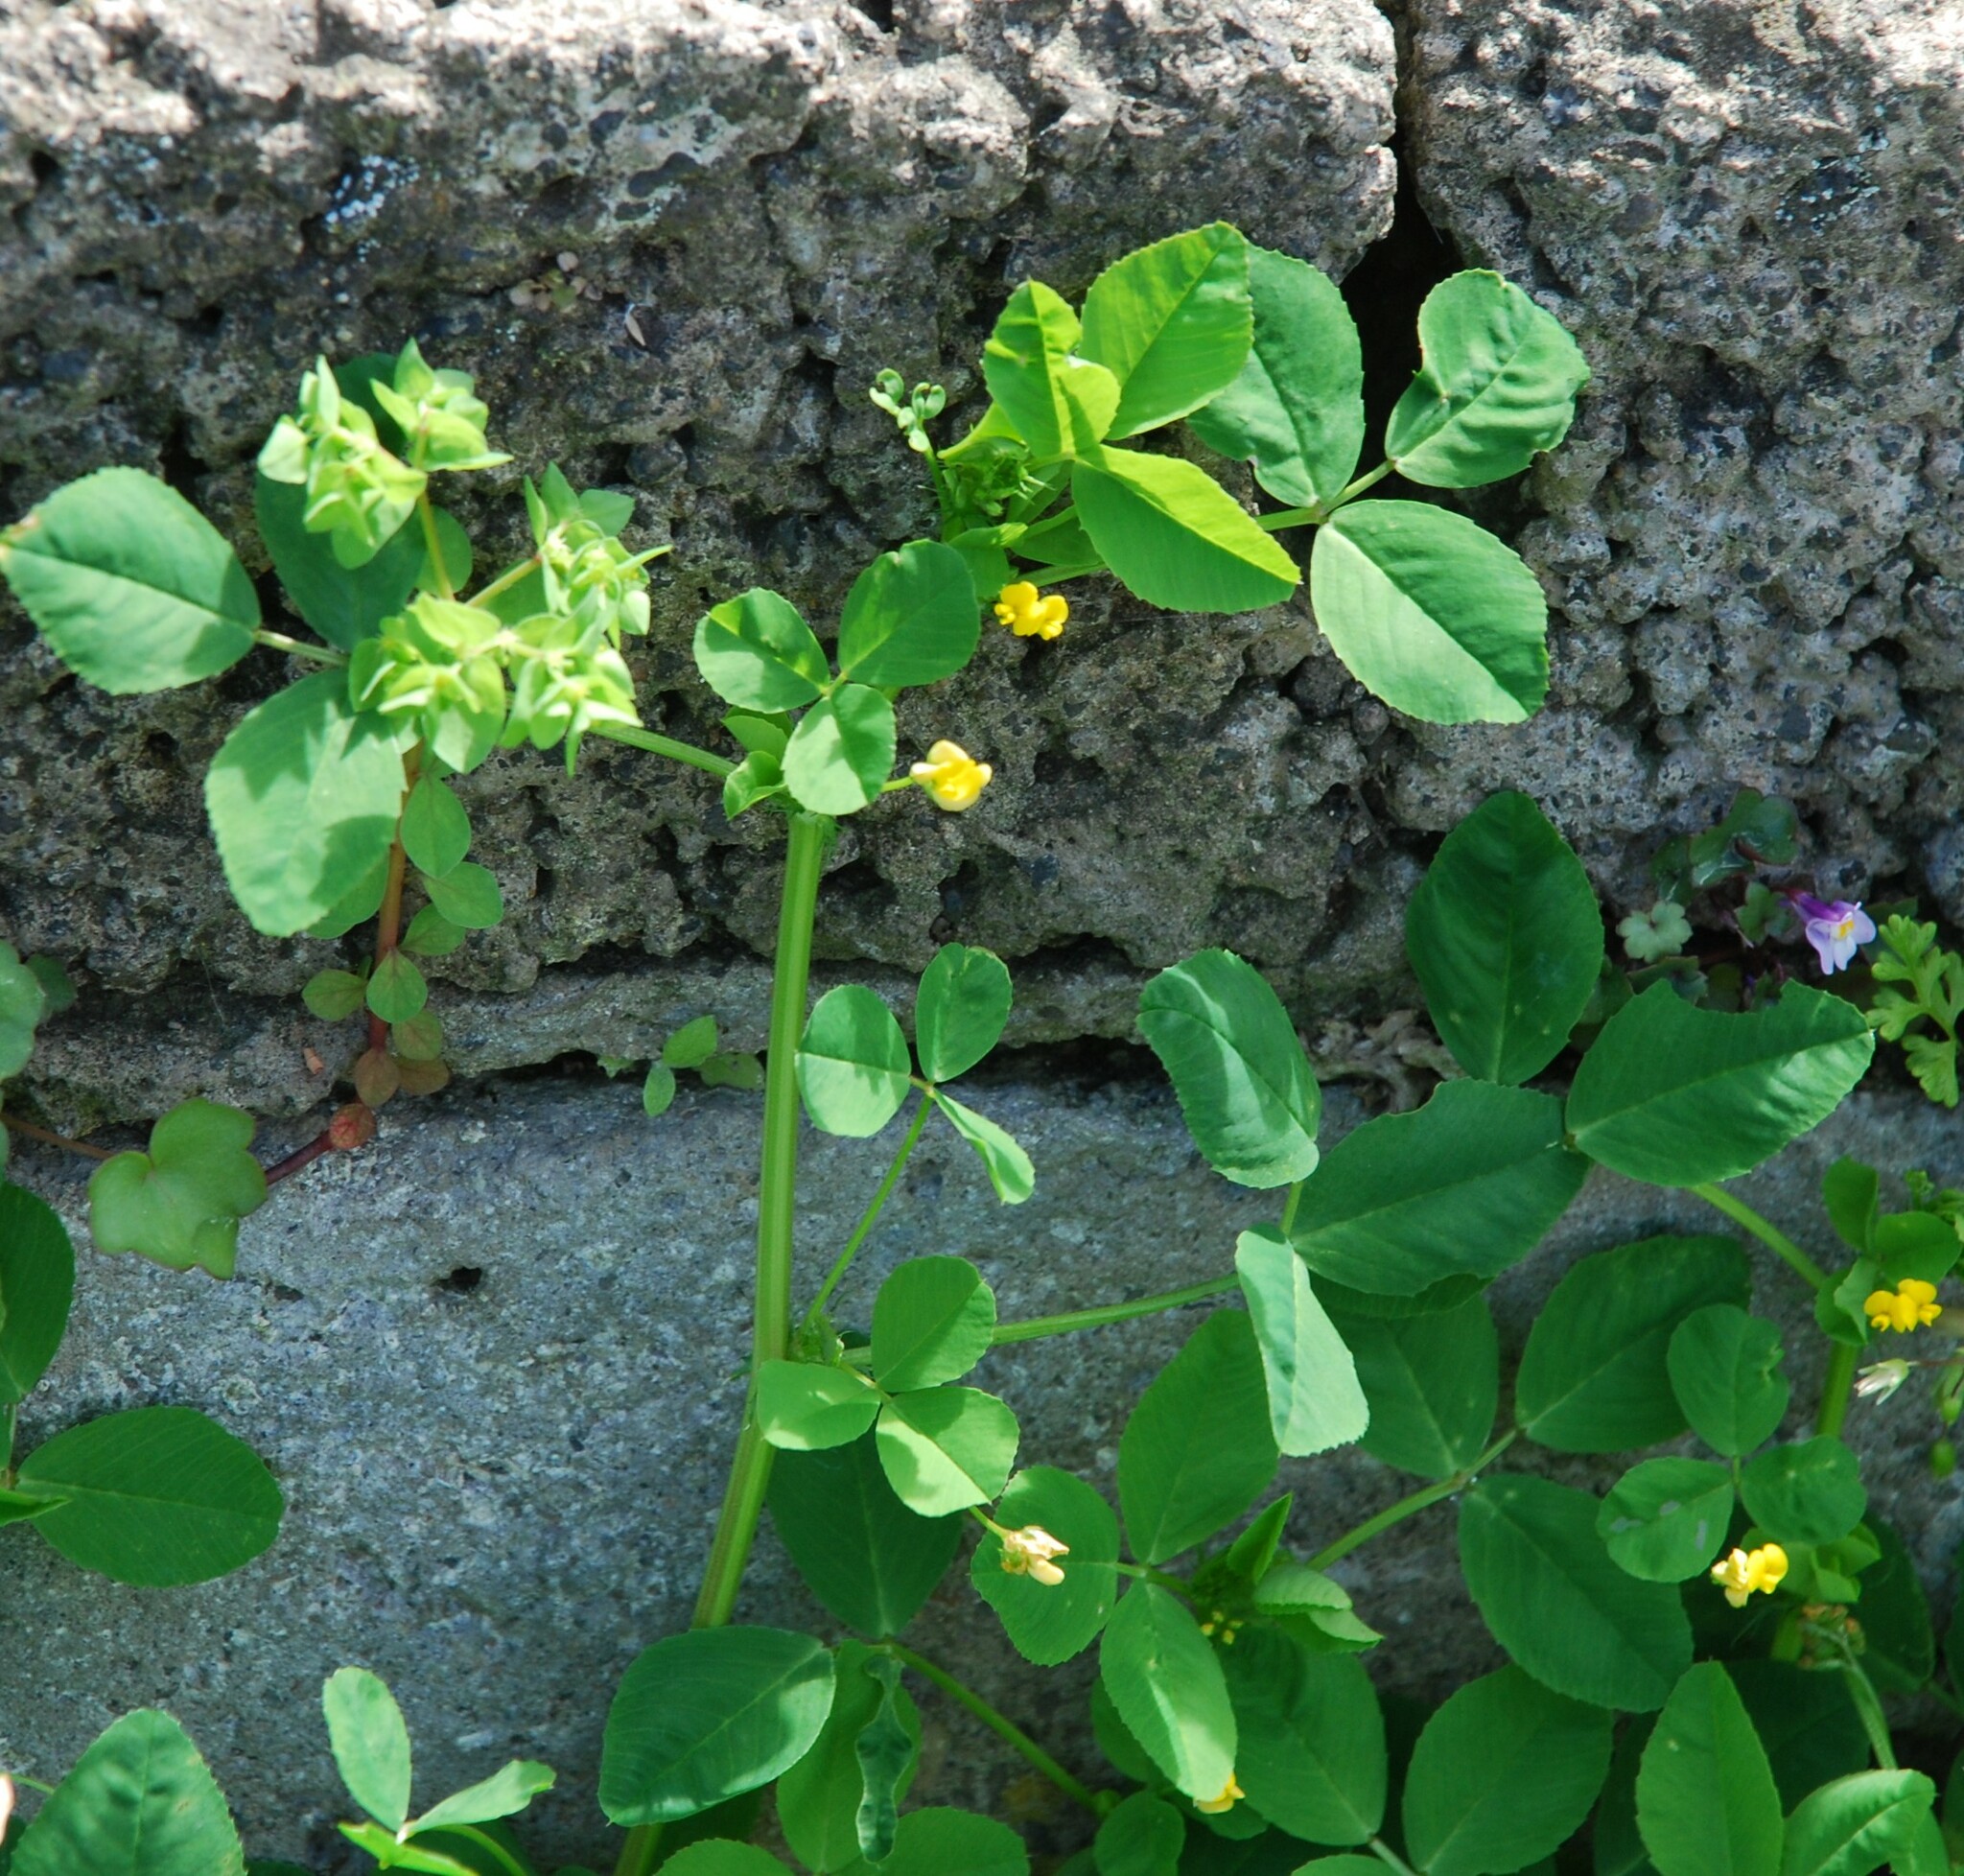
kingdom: Plantae
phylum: Tracheophyta
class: Magnoliopsida
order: Fabales
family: Fabaceae
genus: Medicago
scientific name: Medicago polymorpha
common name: Burclover
